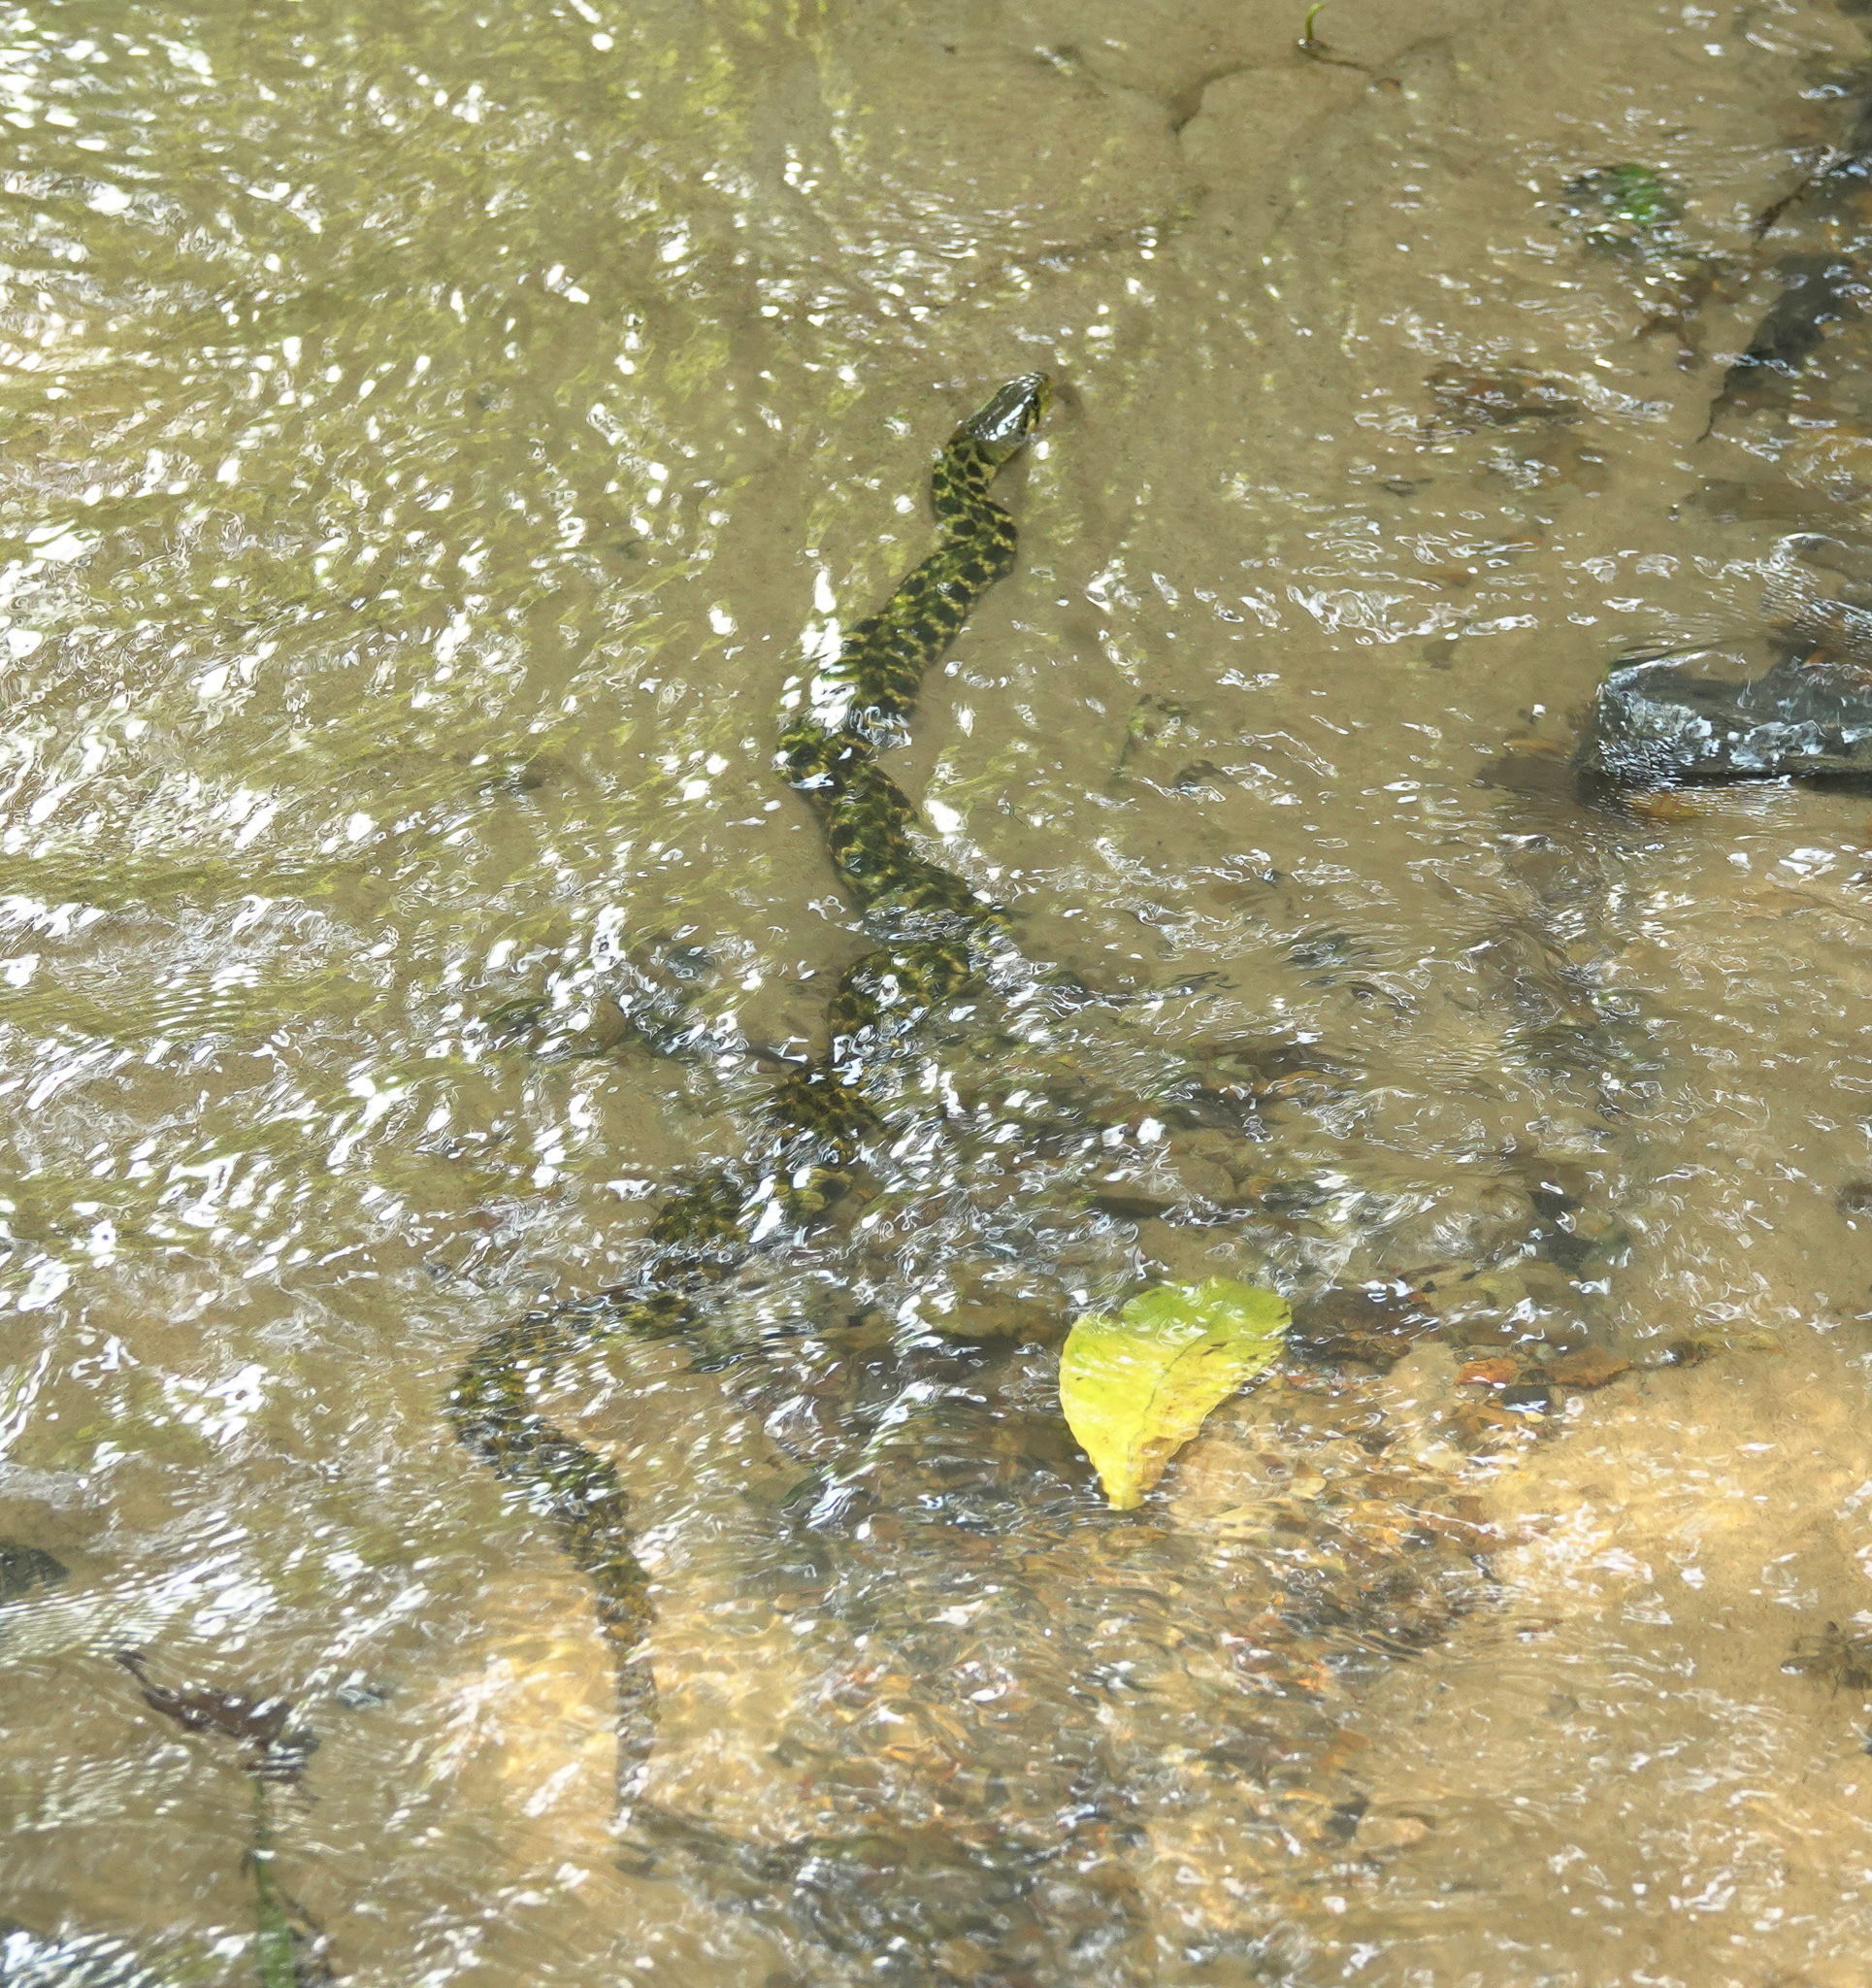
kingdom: Animalia
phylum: Chordata
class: Squamata
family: Colubridae
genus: Fowlea
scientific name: Fowlea piscator
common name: Asiatic water snake
